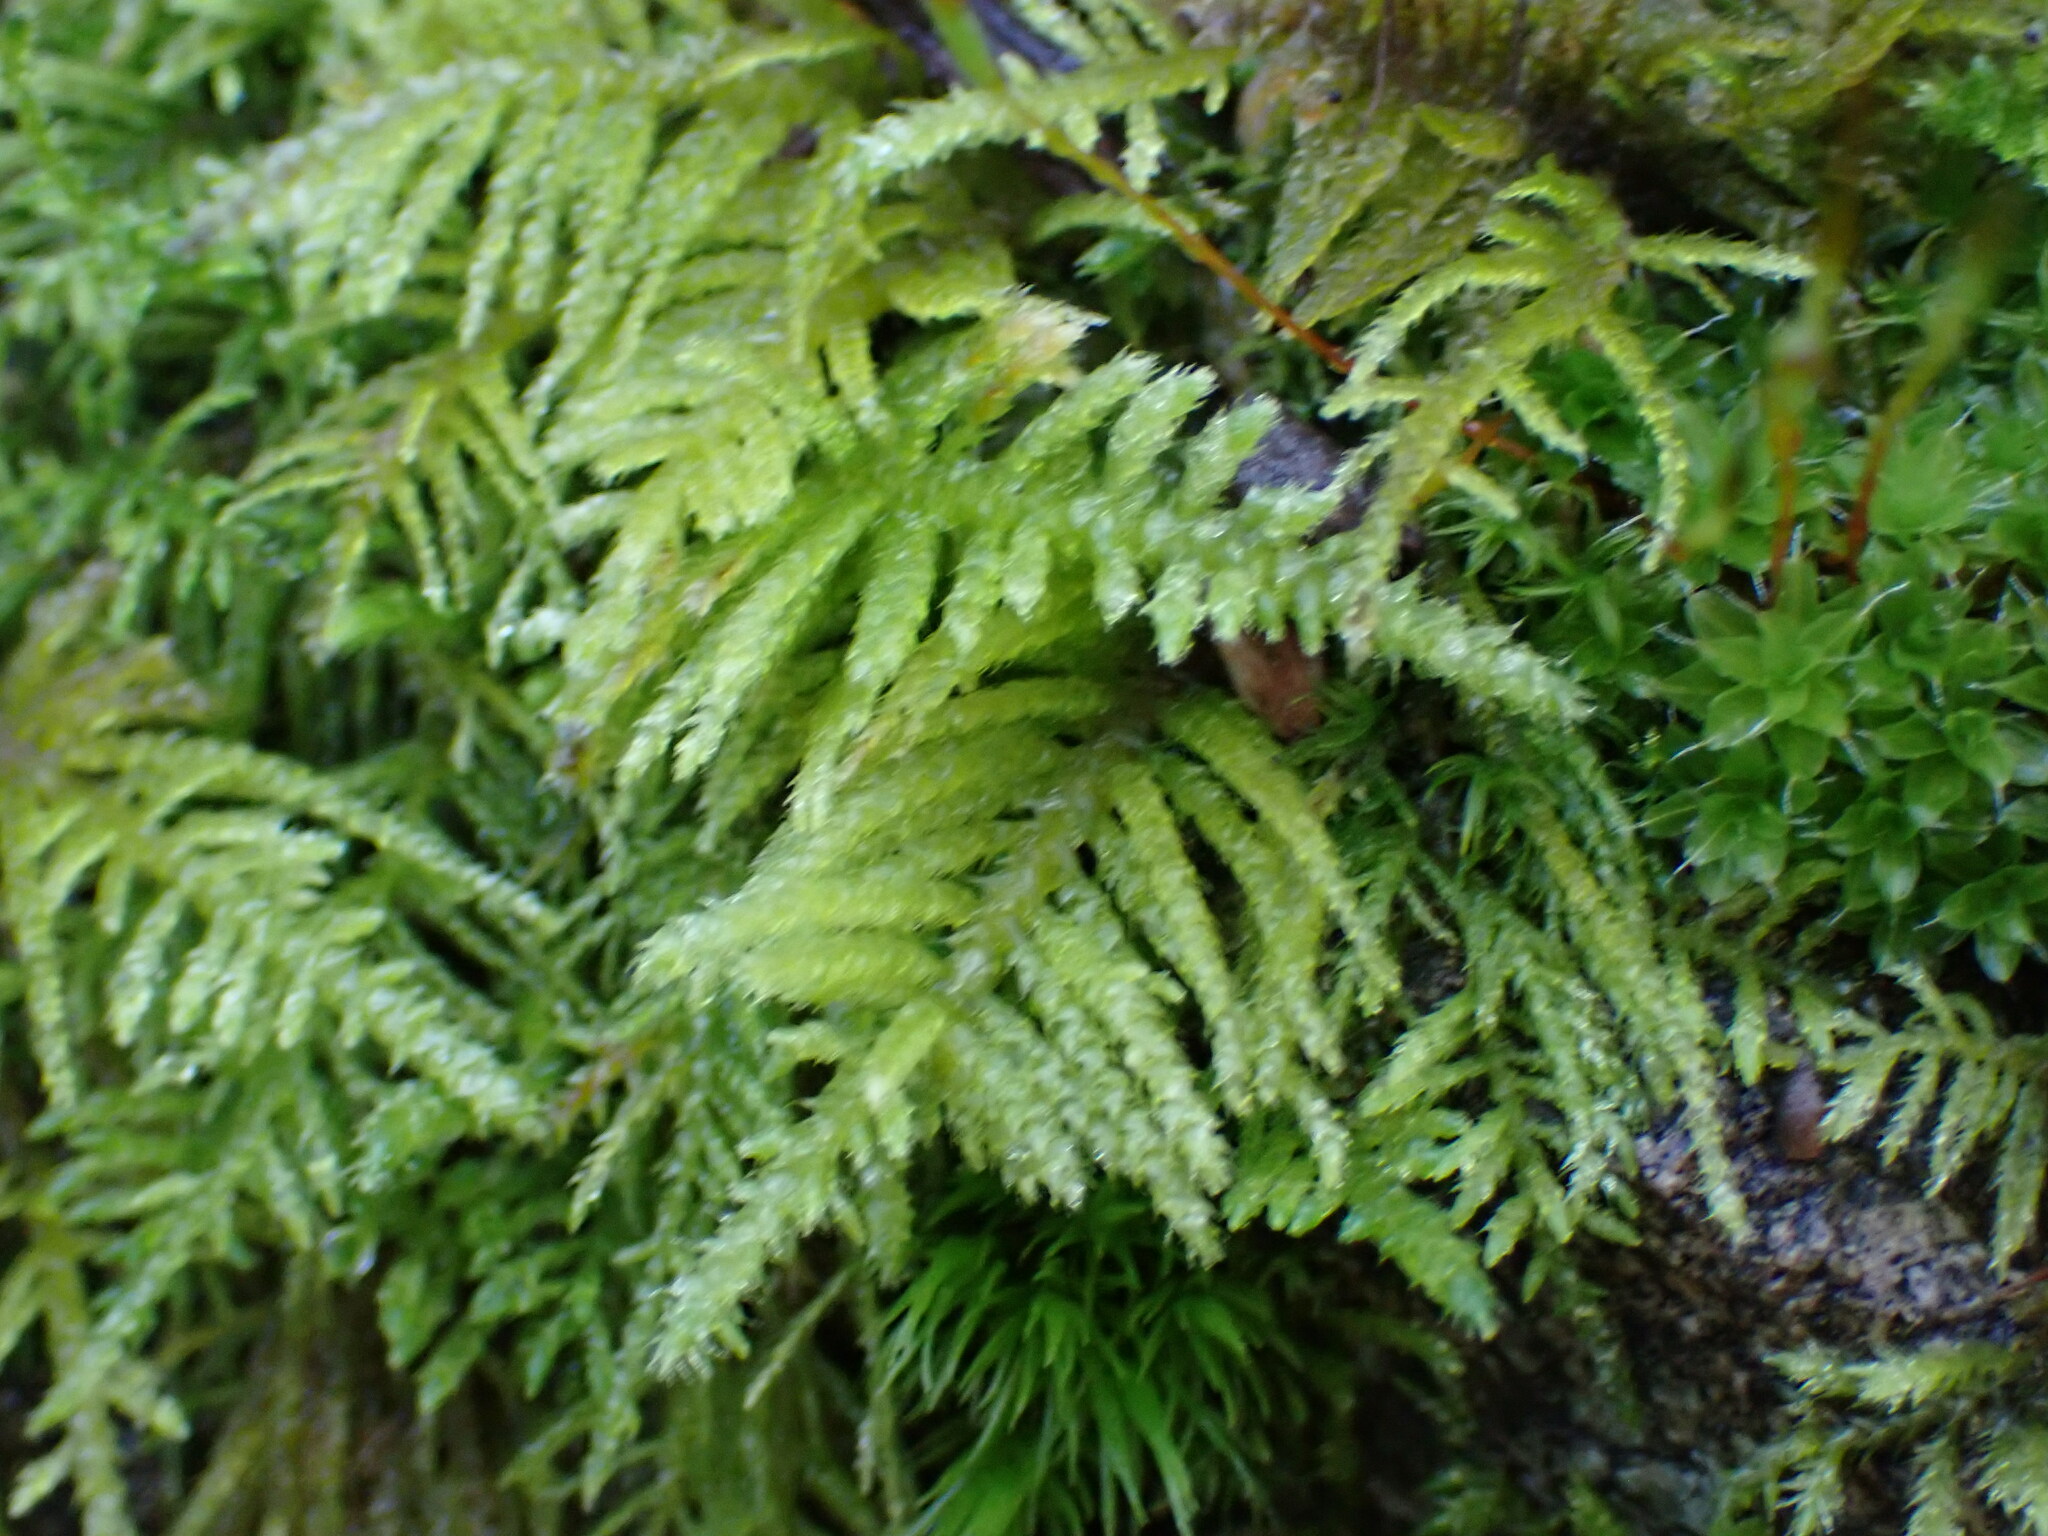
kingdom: Plantae
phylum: Bryophyta
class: Bryopsida
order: Hypnales
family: Brachytheciaceae
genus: Kindbergia
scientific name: Kindbergia oregana
